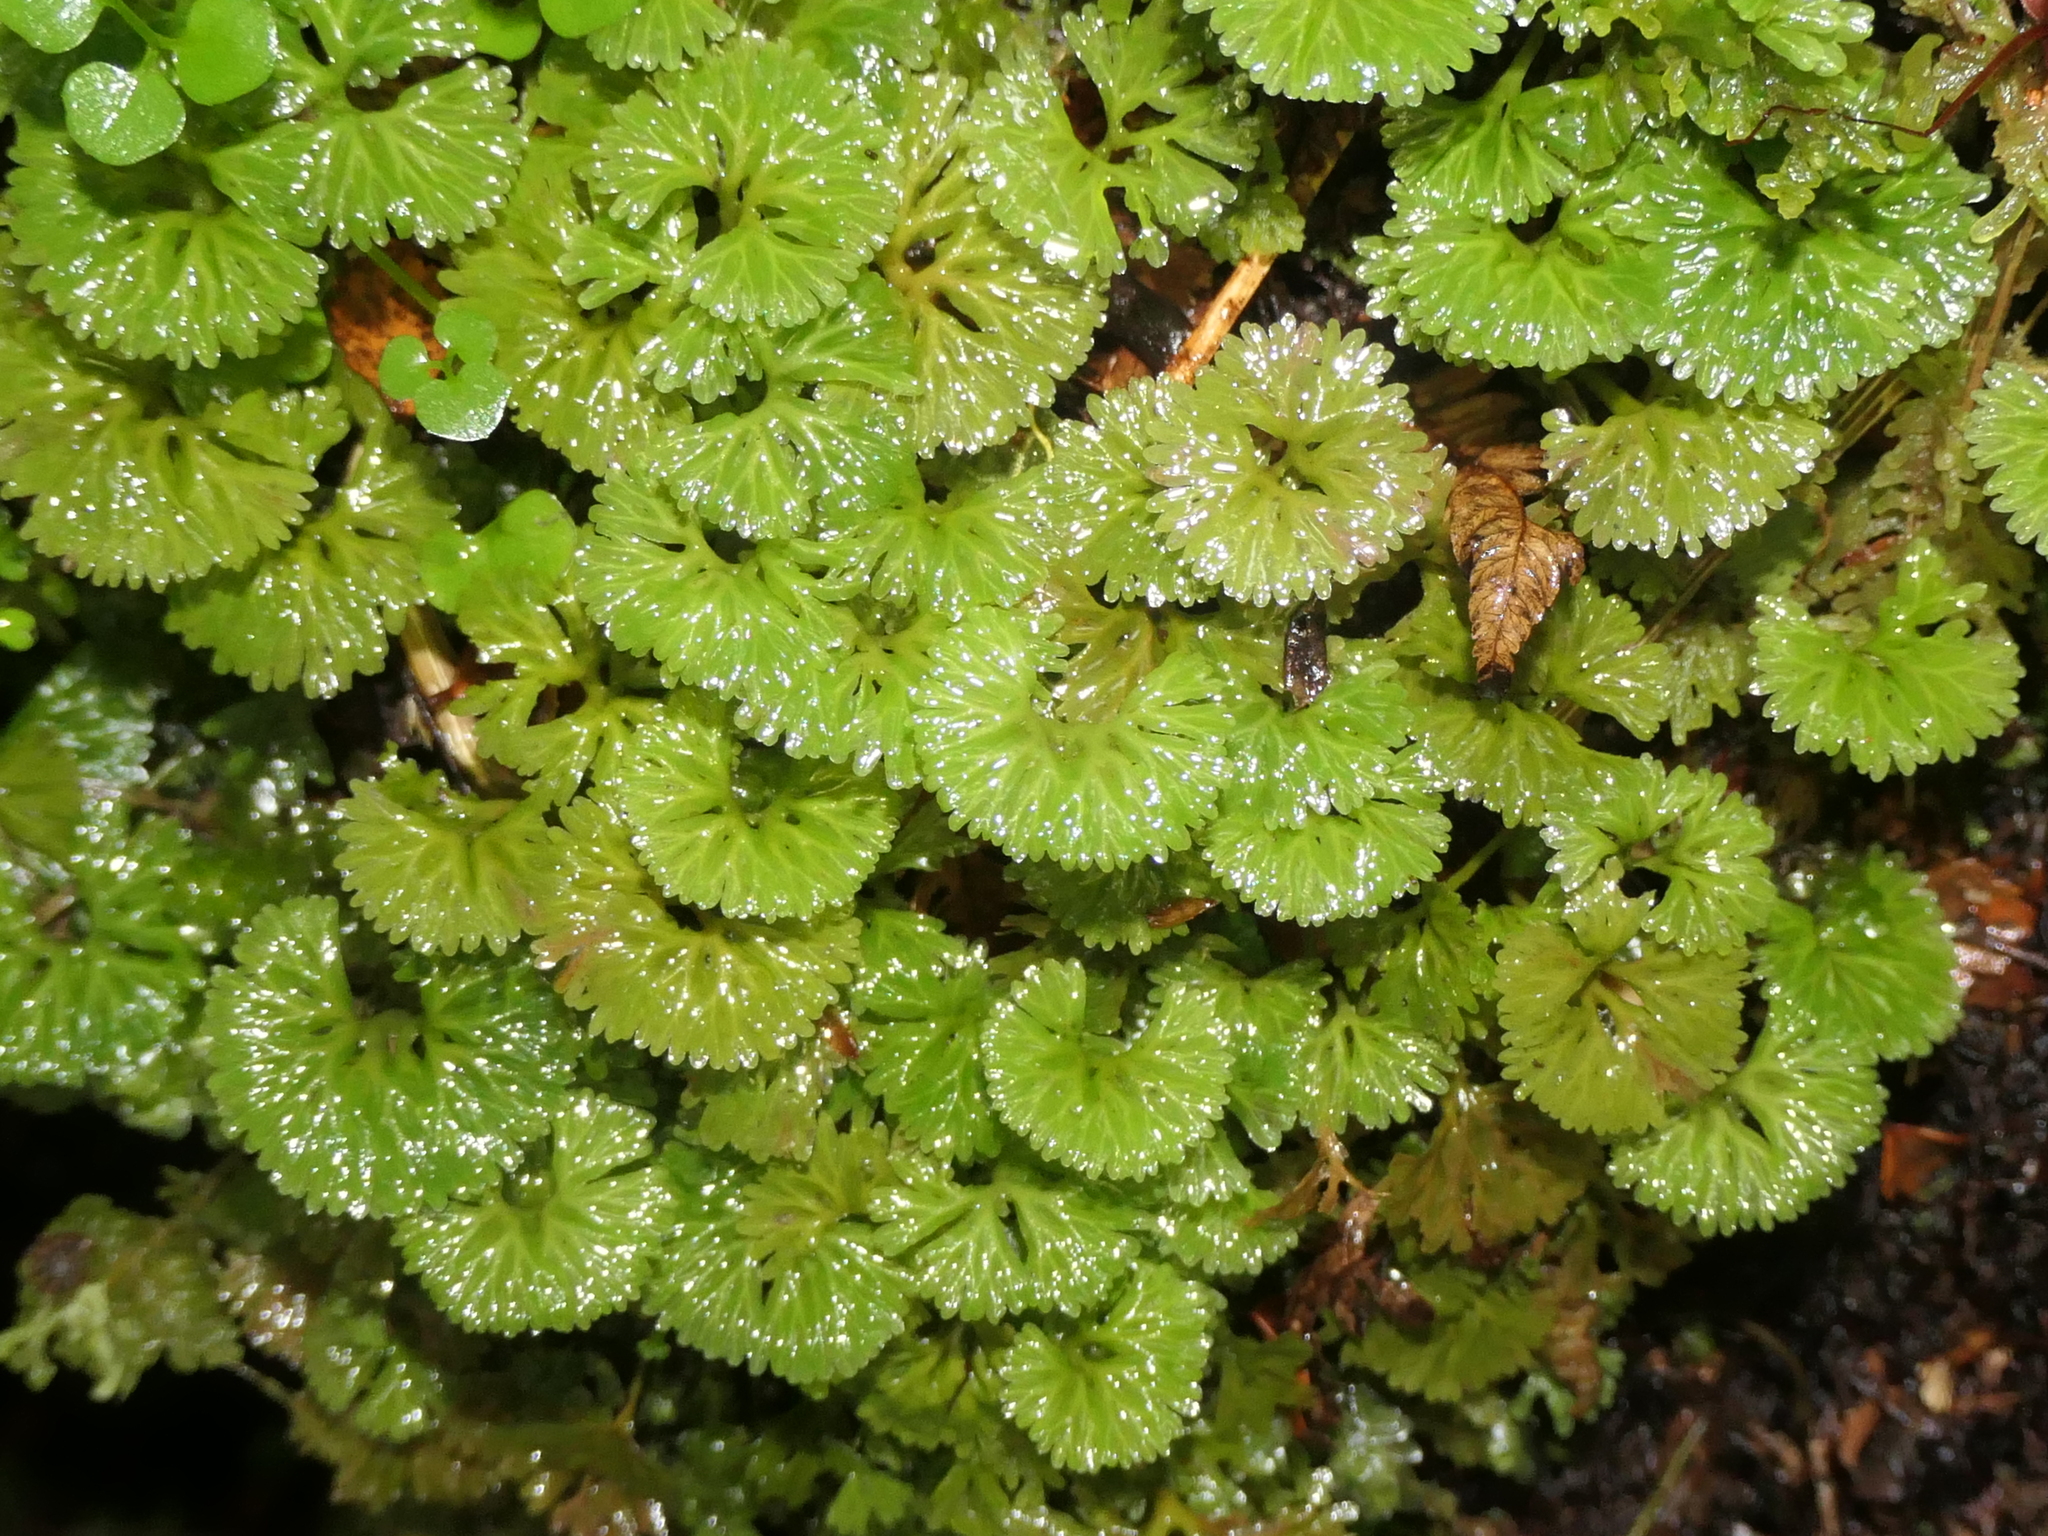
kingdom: Plantae
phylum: Marchantiophyta
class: Jungermanniopsida
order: Pallaviciniales
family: Hymenophytaceae
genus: Hymenophyton
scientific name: Hymenophyton flabellatum
